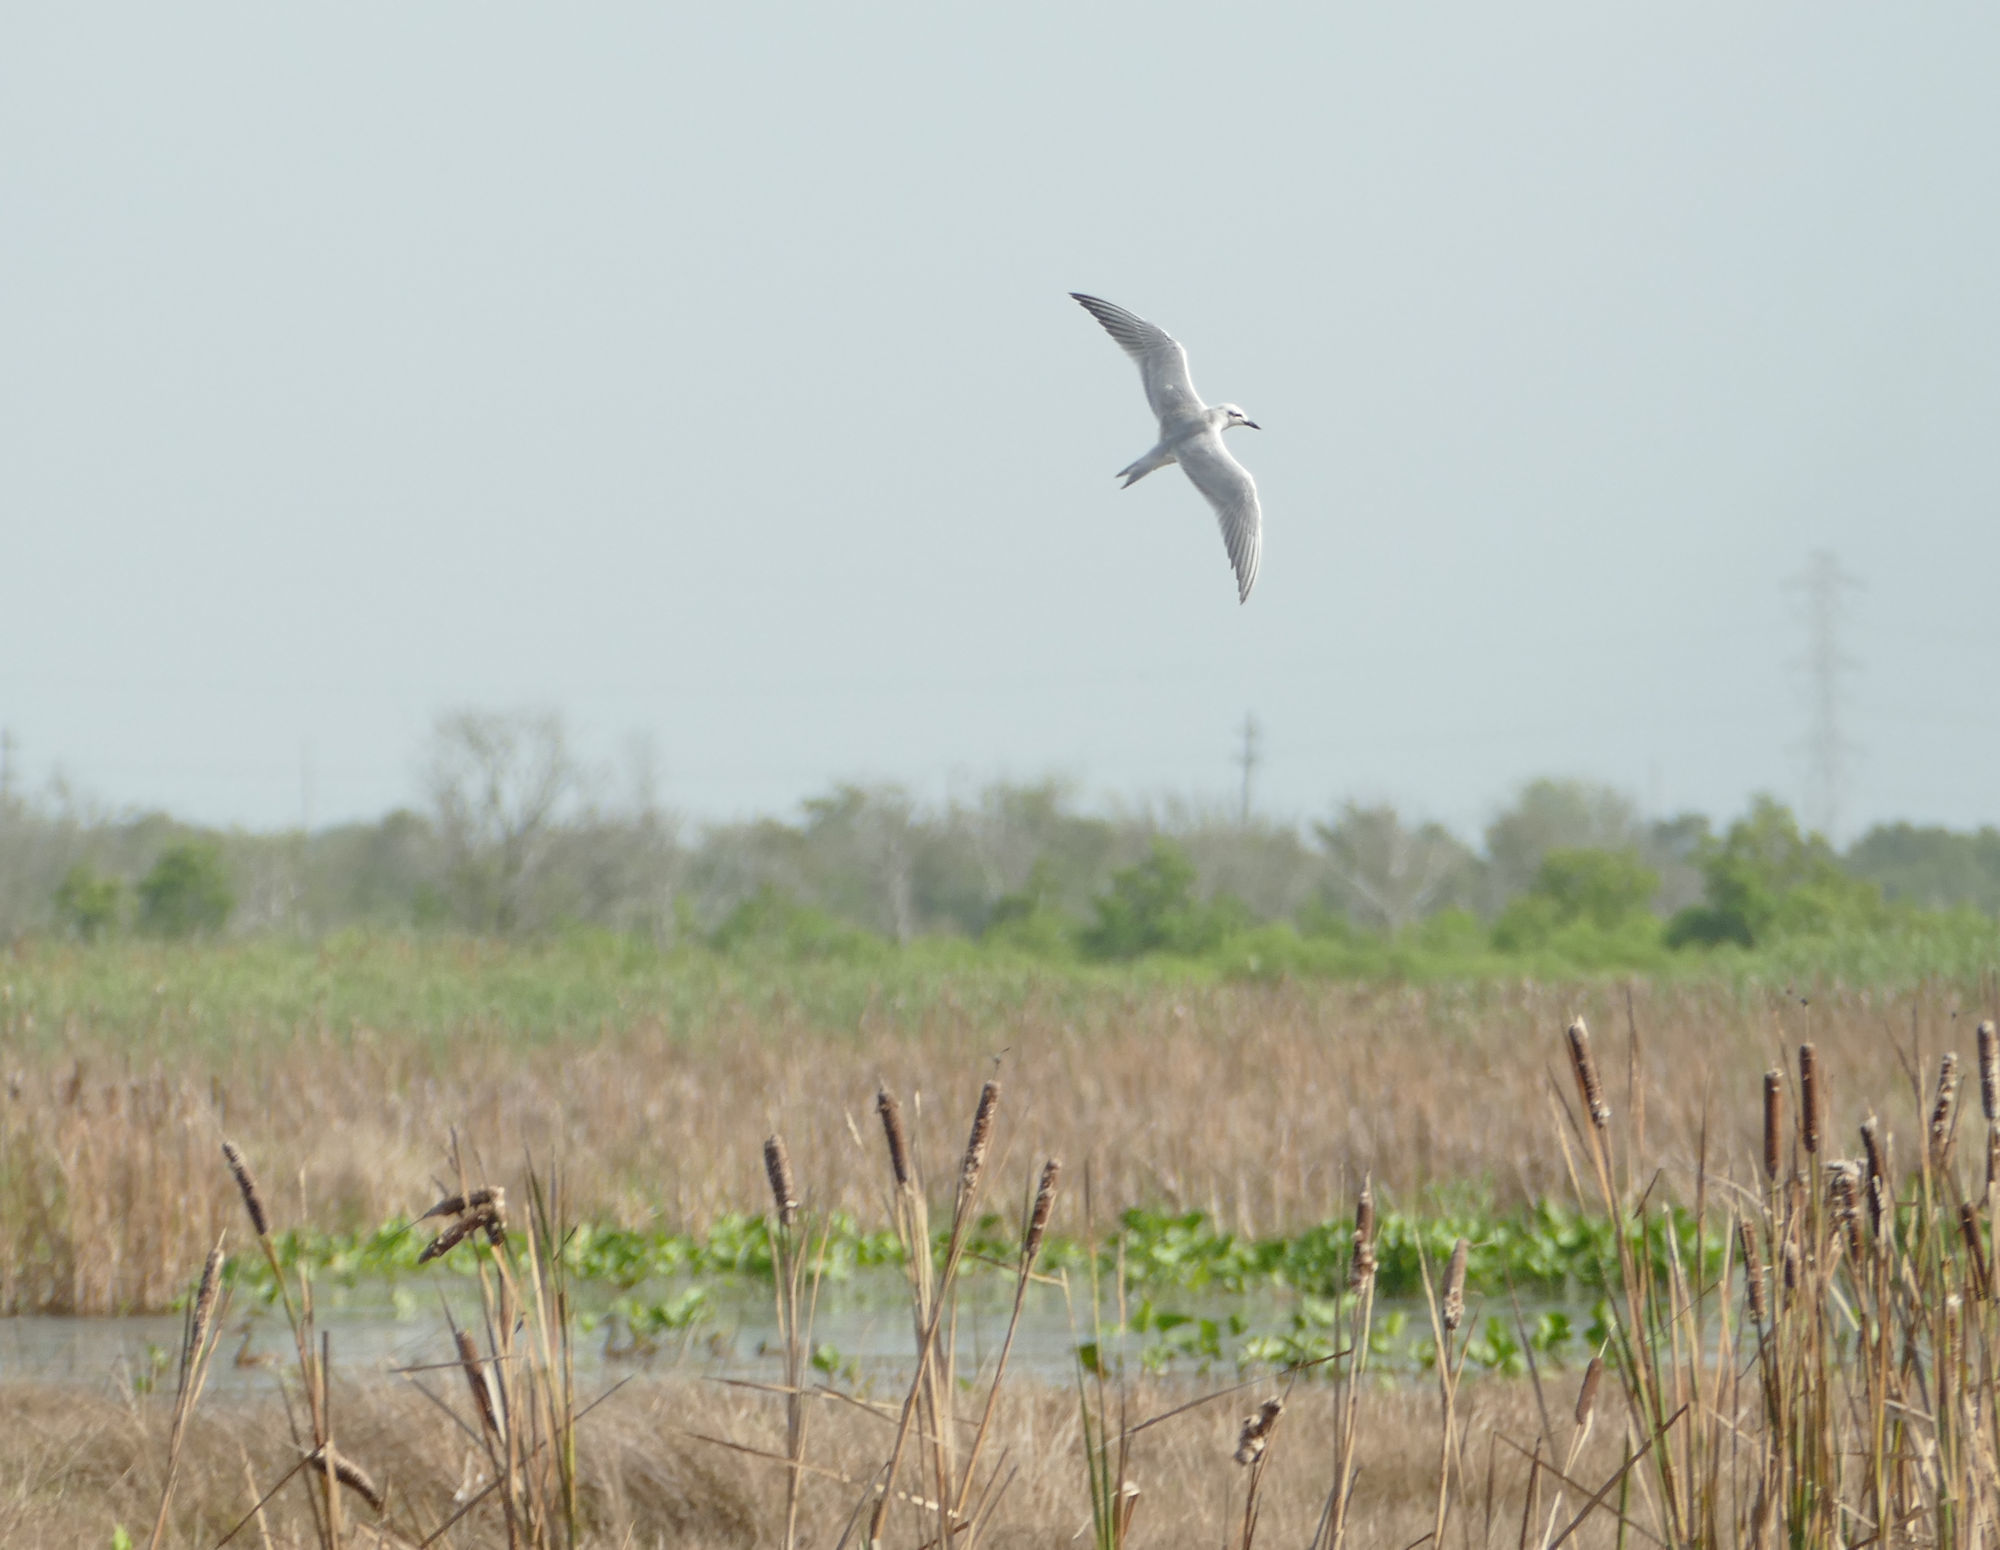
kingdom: Animalia
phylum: Chordata
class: Aves
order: Charadriiformes
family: Laridae
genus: Gelochelidon
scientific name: Gelochelidon nilotica
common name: Gull-billed tern
